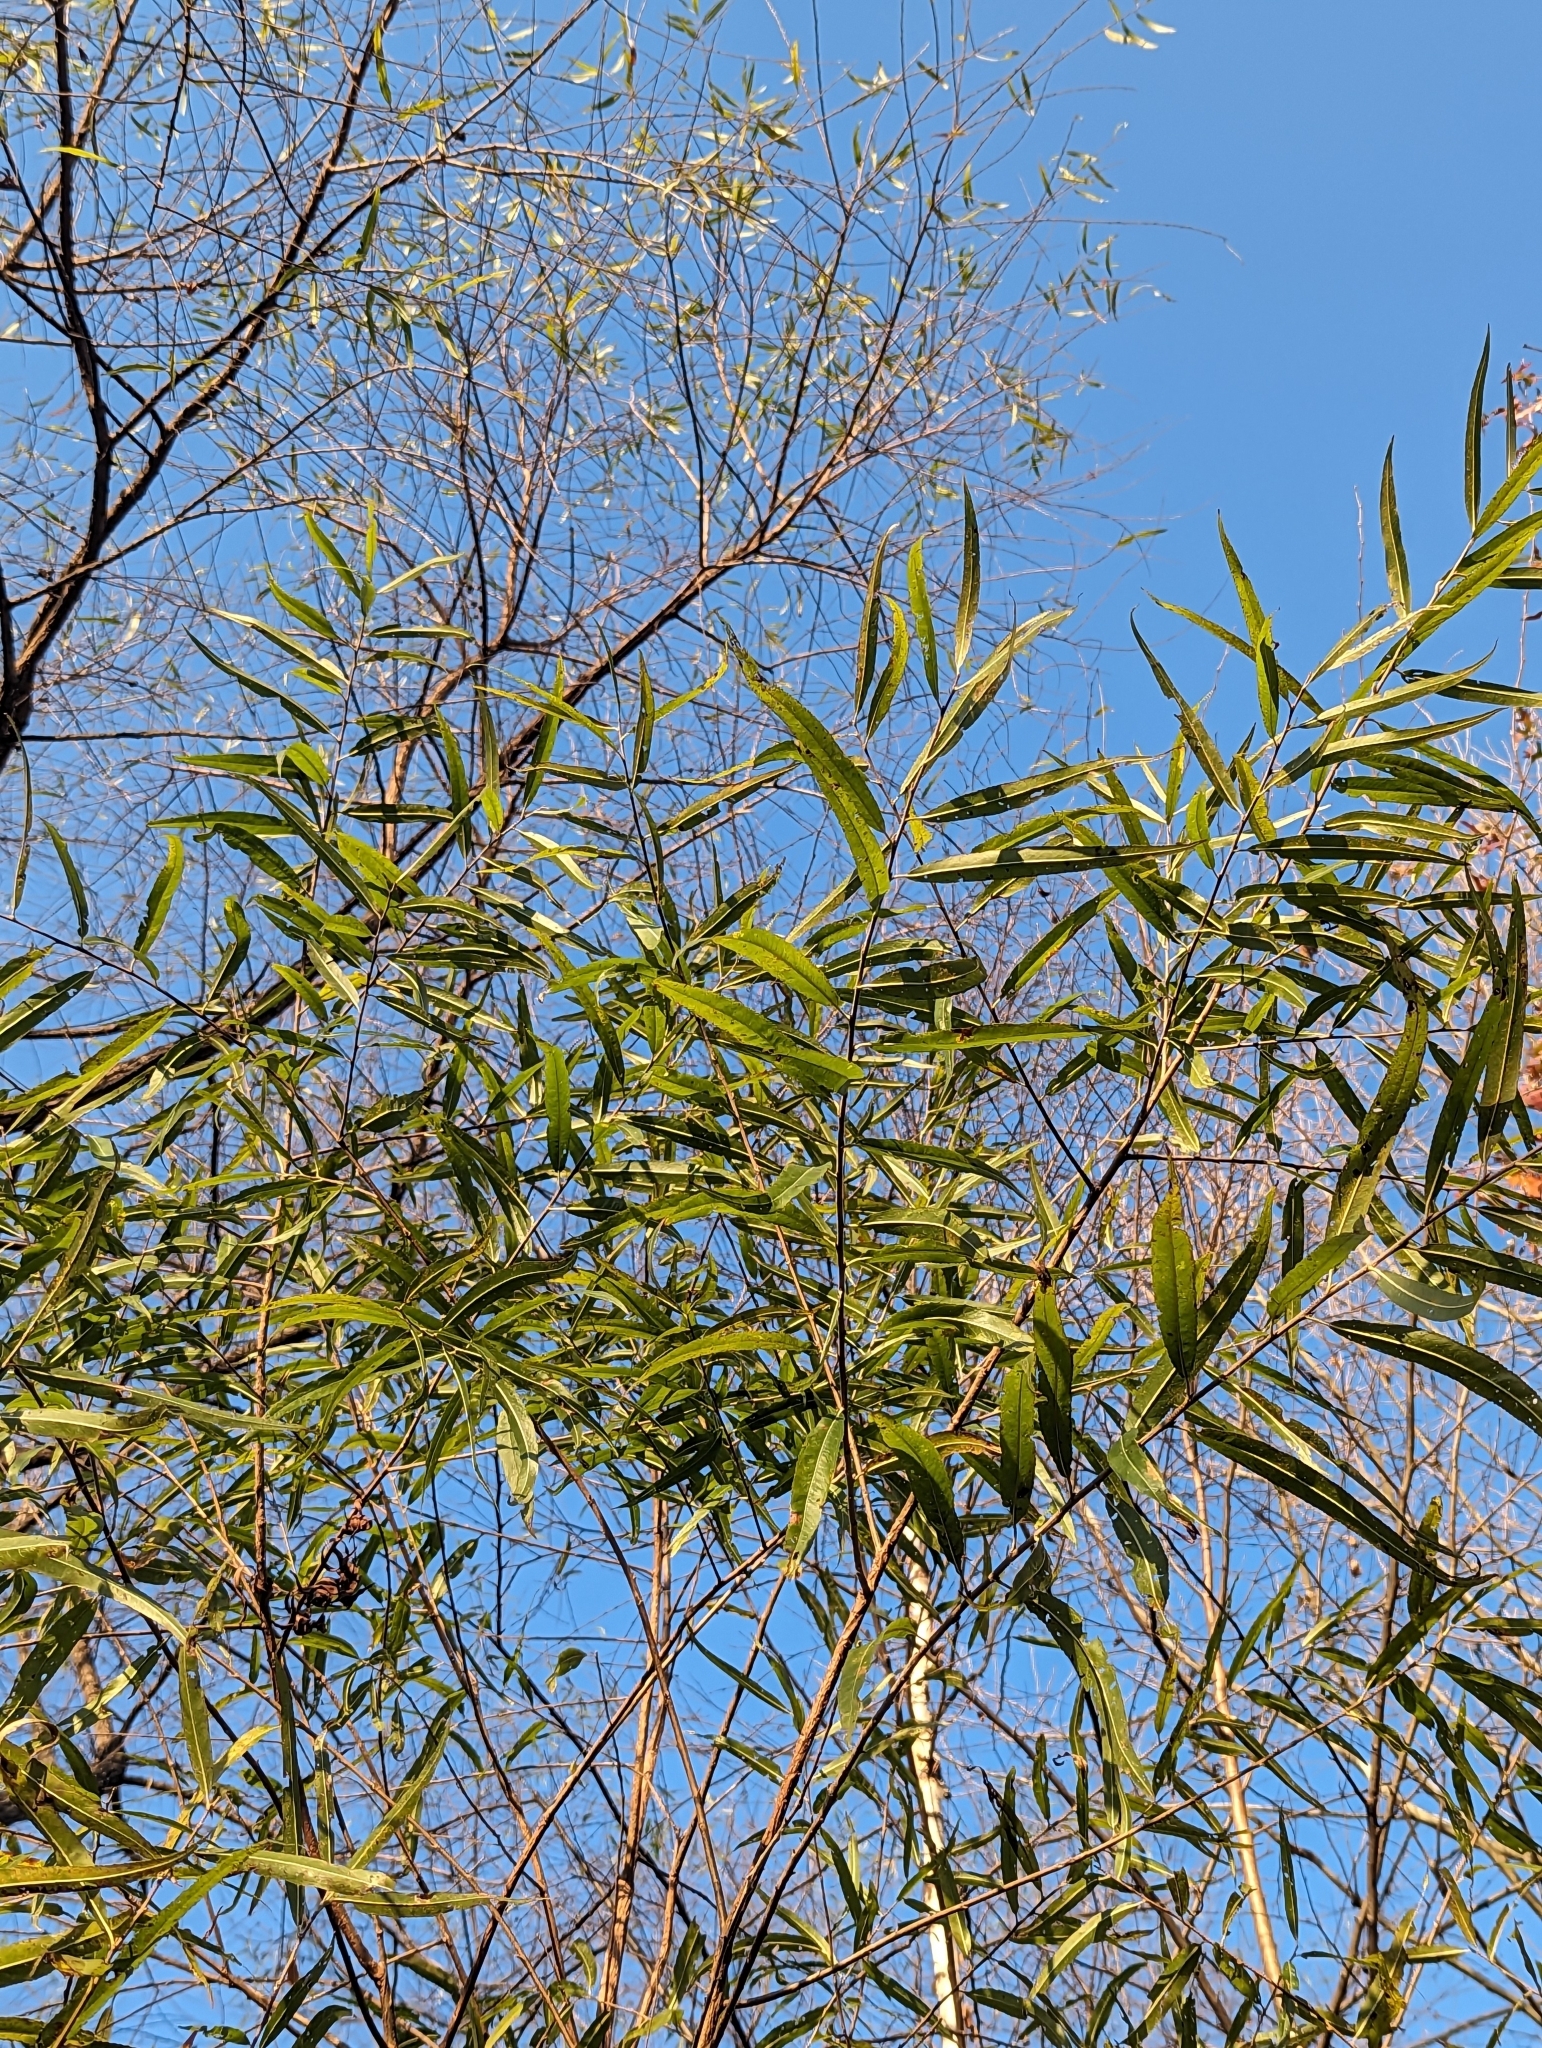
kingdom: Plantae
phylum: Tracheophyta
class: Magnoliopsida
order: Malpighiales
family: Salicaceae
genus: Salix
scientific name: Salix nigra
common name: Black willow
